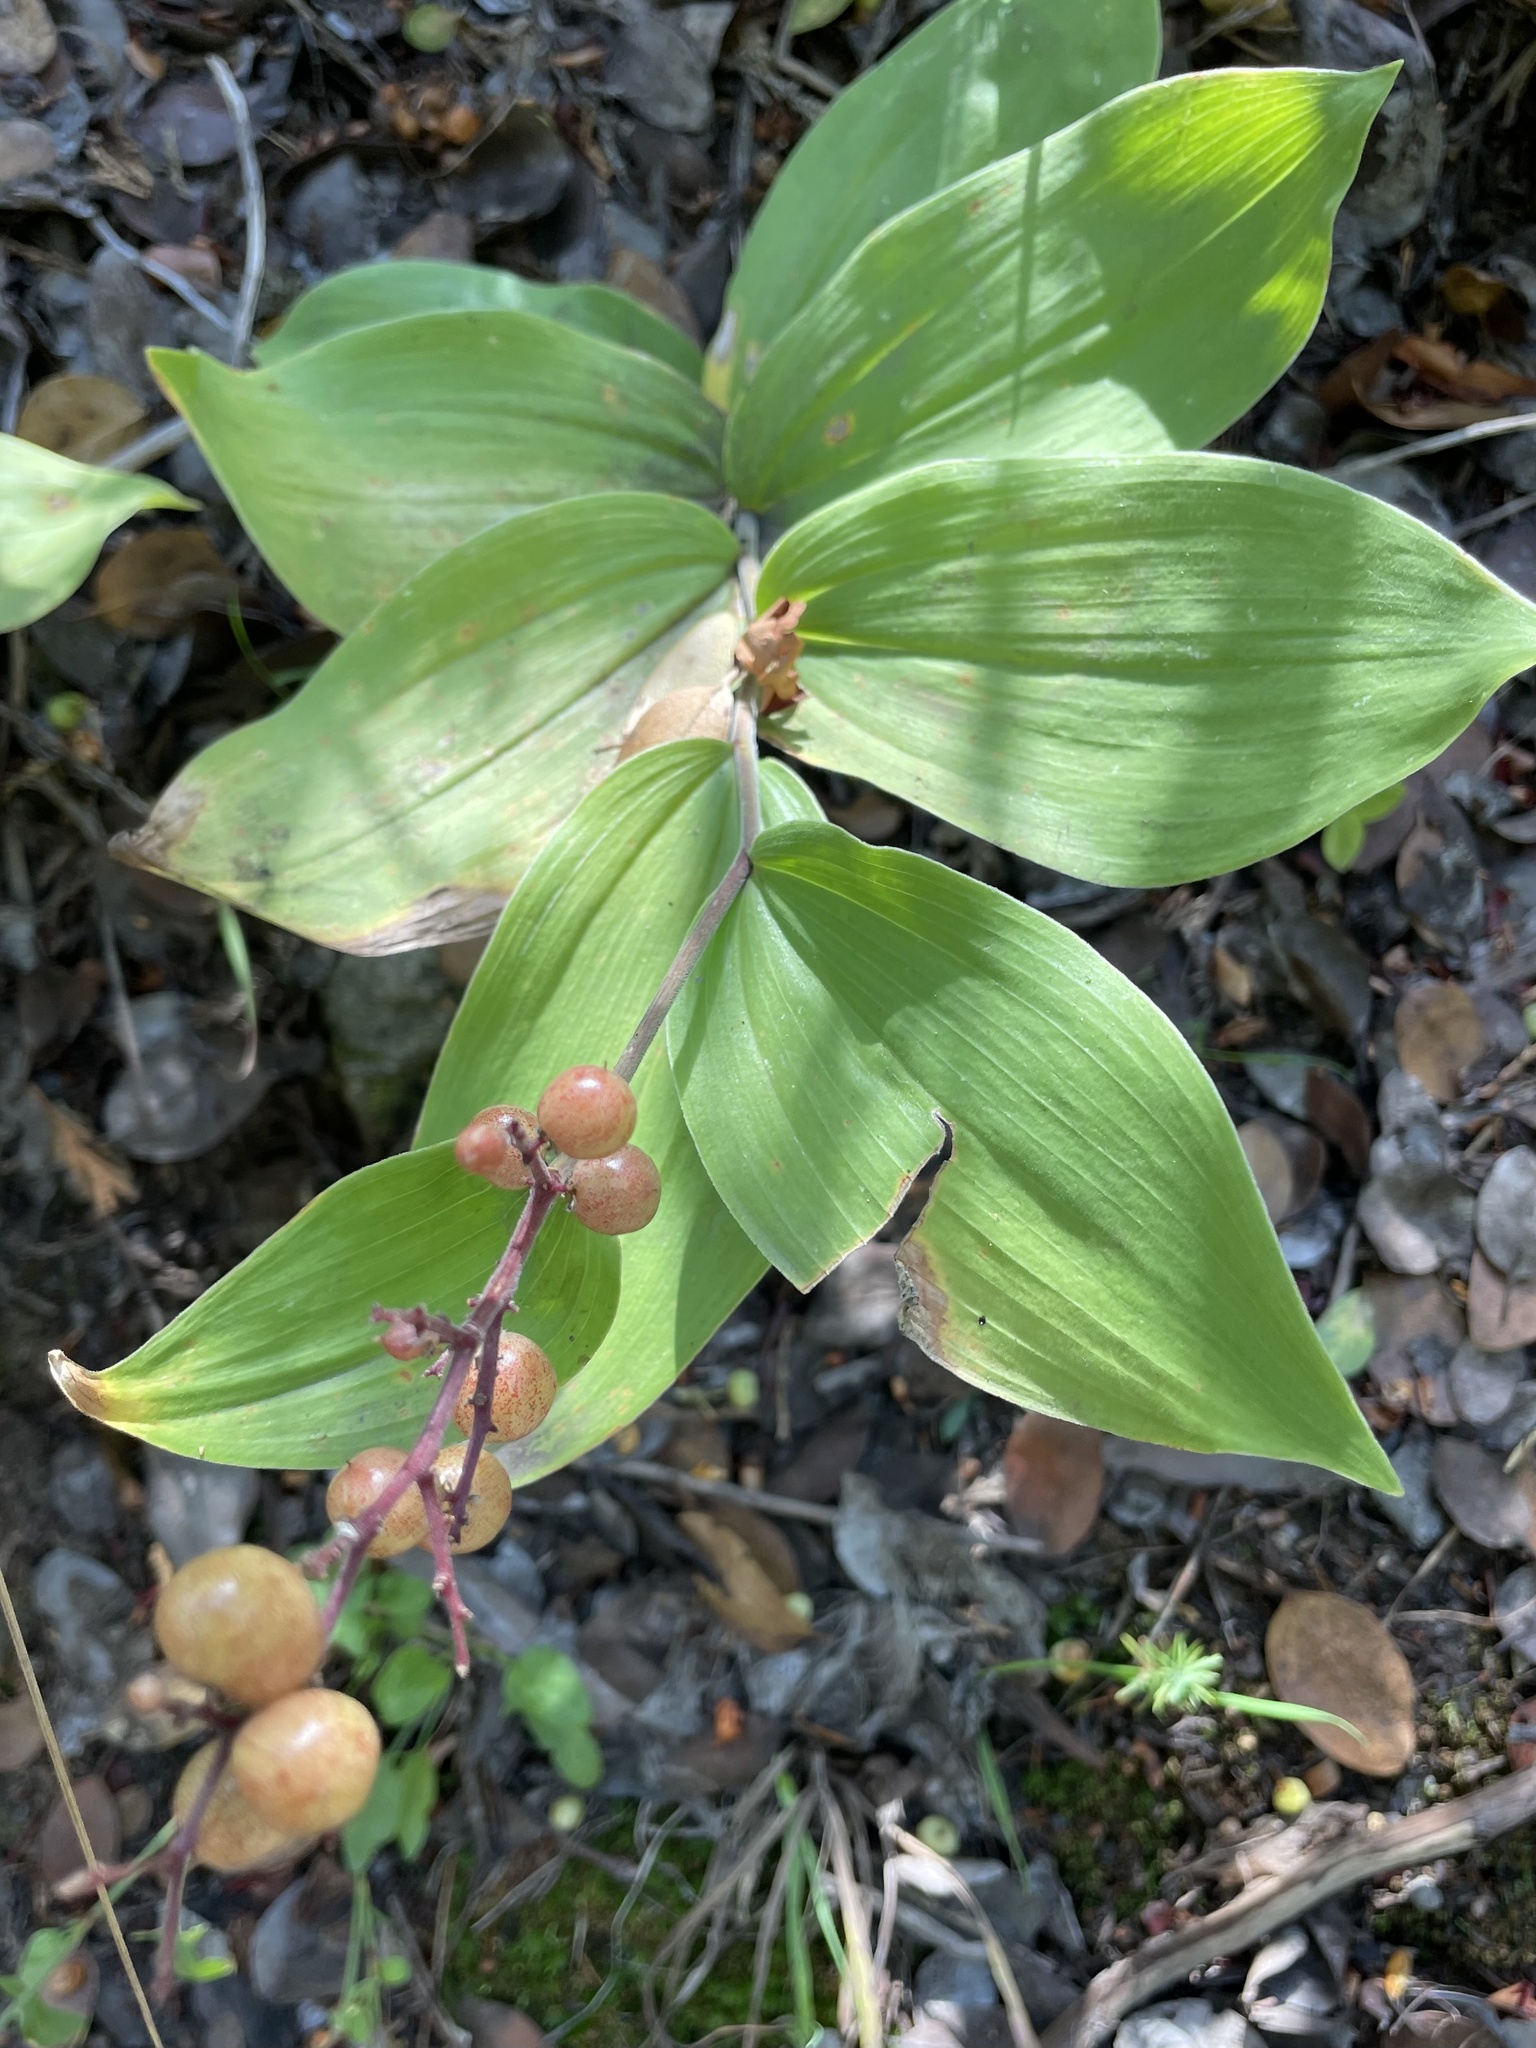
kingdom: Plantae
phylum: Tracheophyta
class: Liliopsida
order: Asparagales
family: Asparagaceae
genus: Maianthemum
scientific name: Maianthemum racemosum
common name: False spikenard
